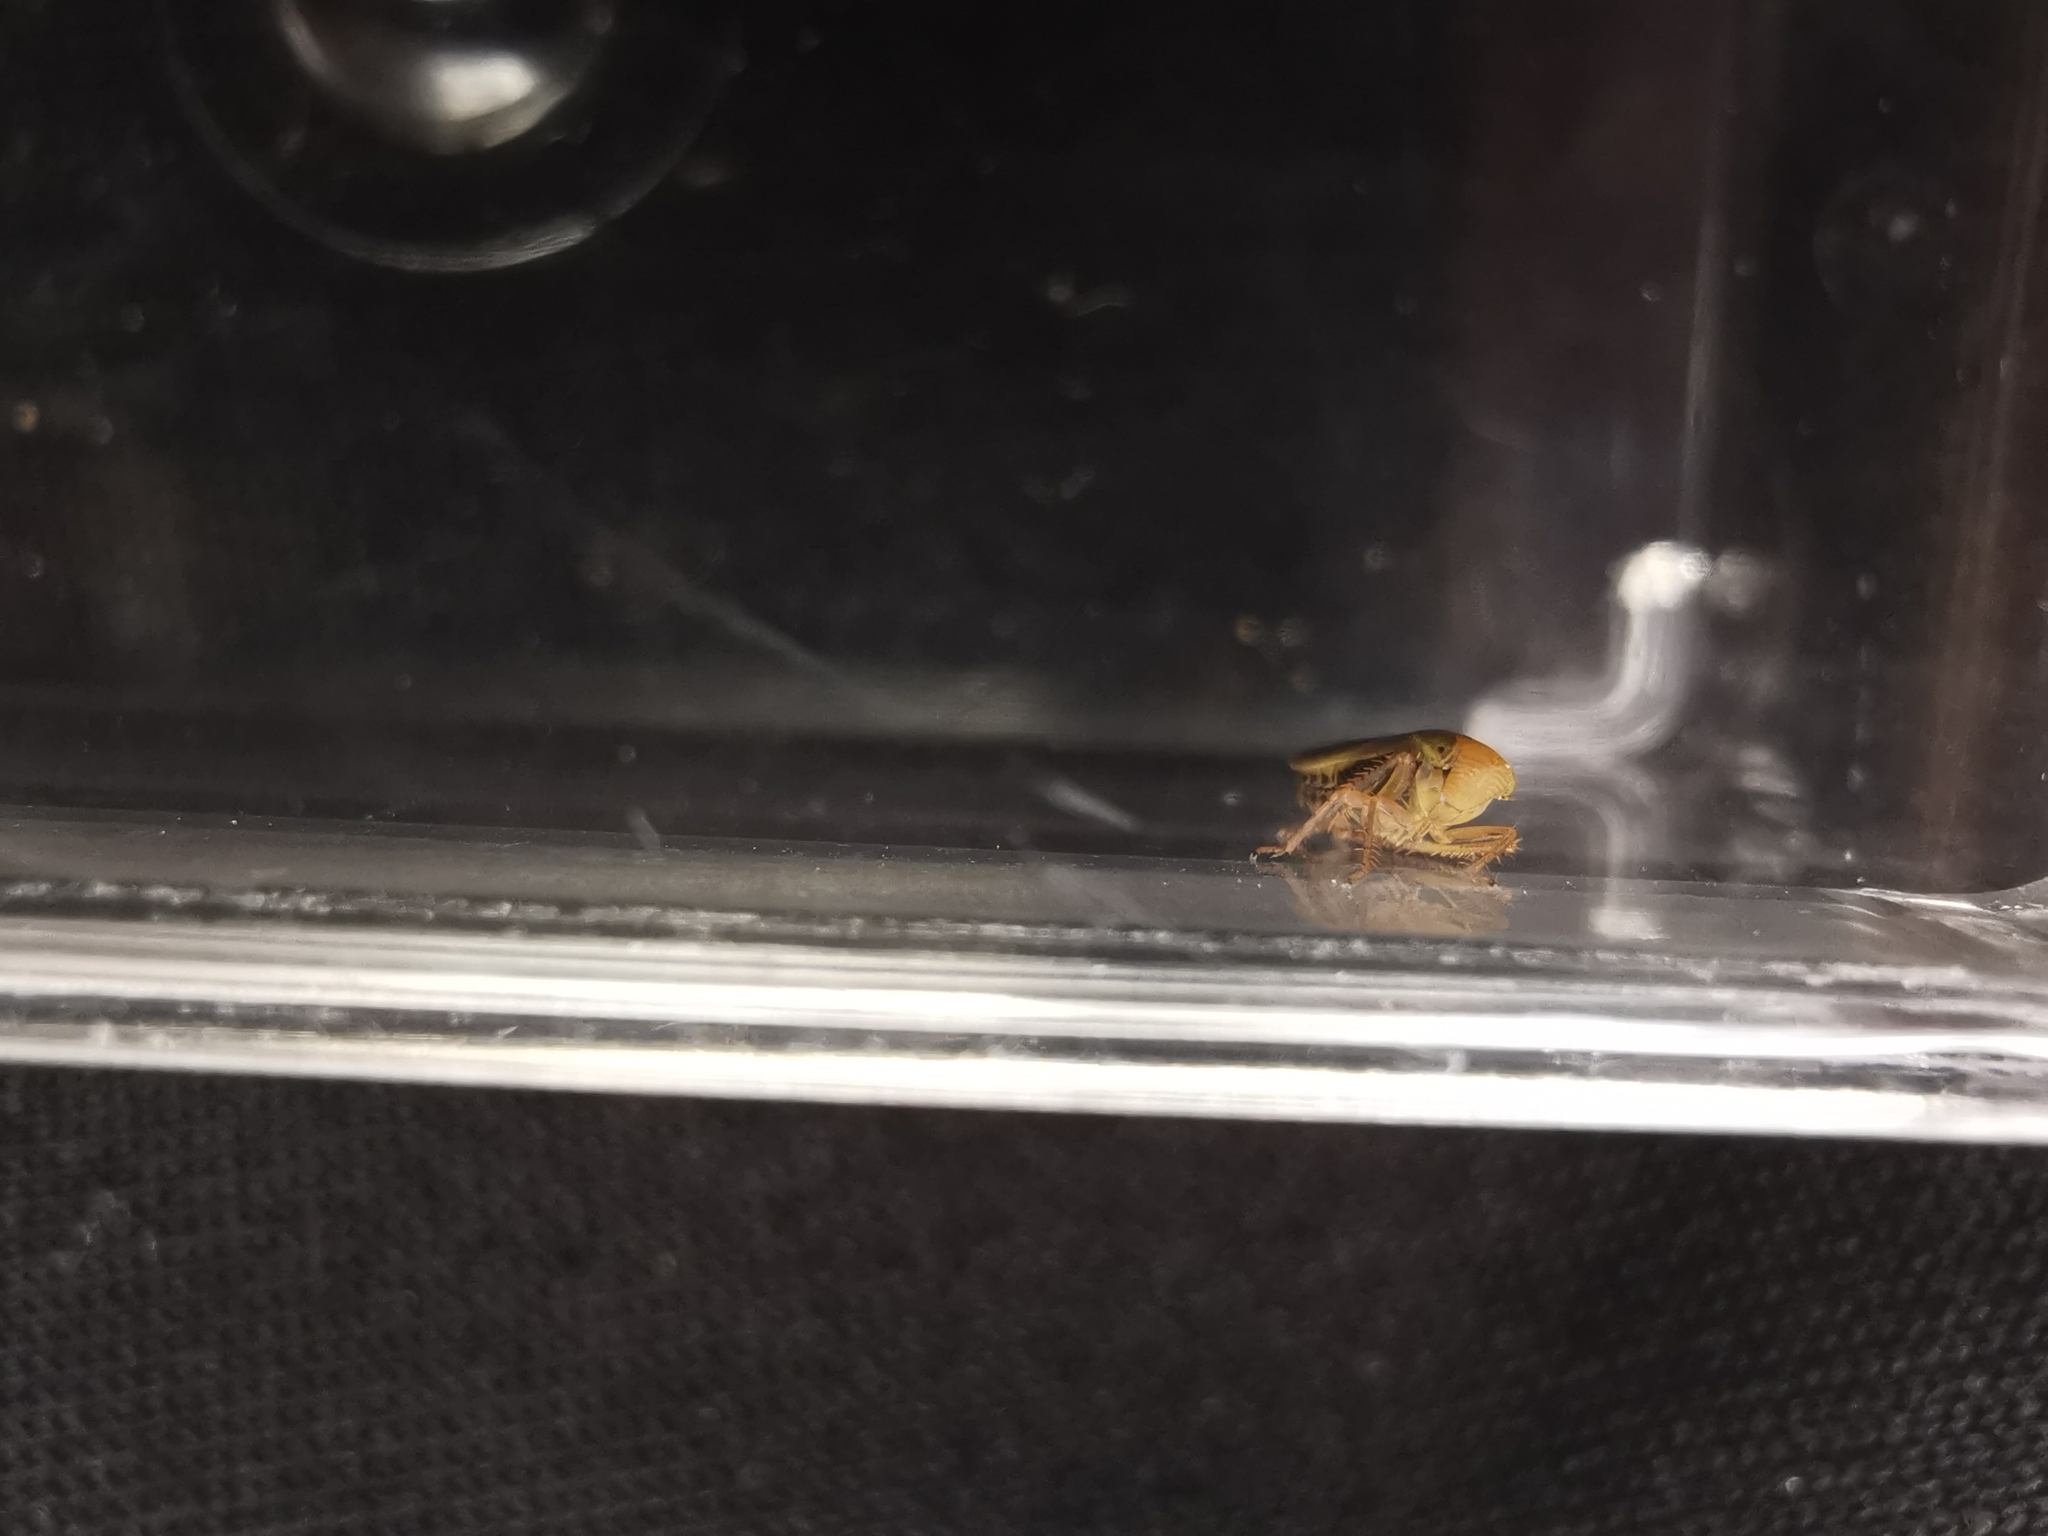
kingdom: Animalia
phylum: Arthropoda
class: Insecta
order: Hemiptera
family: Cicadellidae
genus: Thamnotettix
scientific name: Thamnotettix confinis
